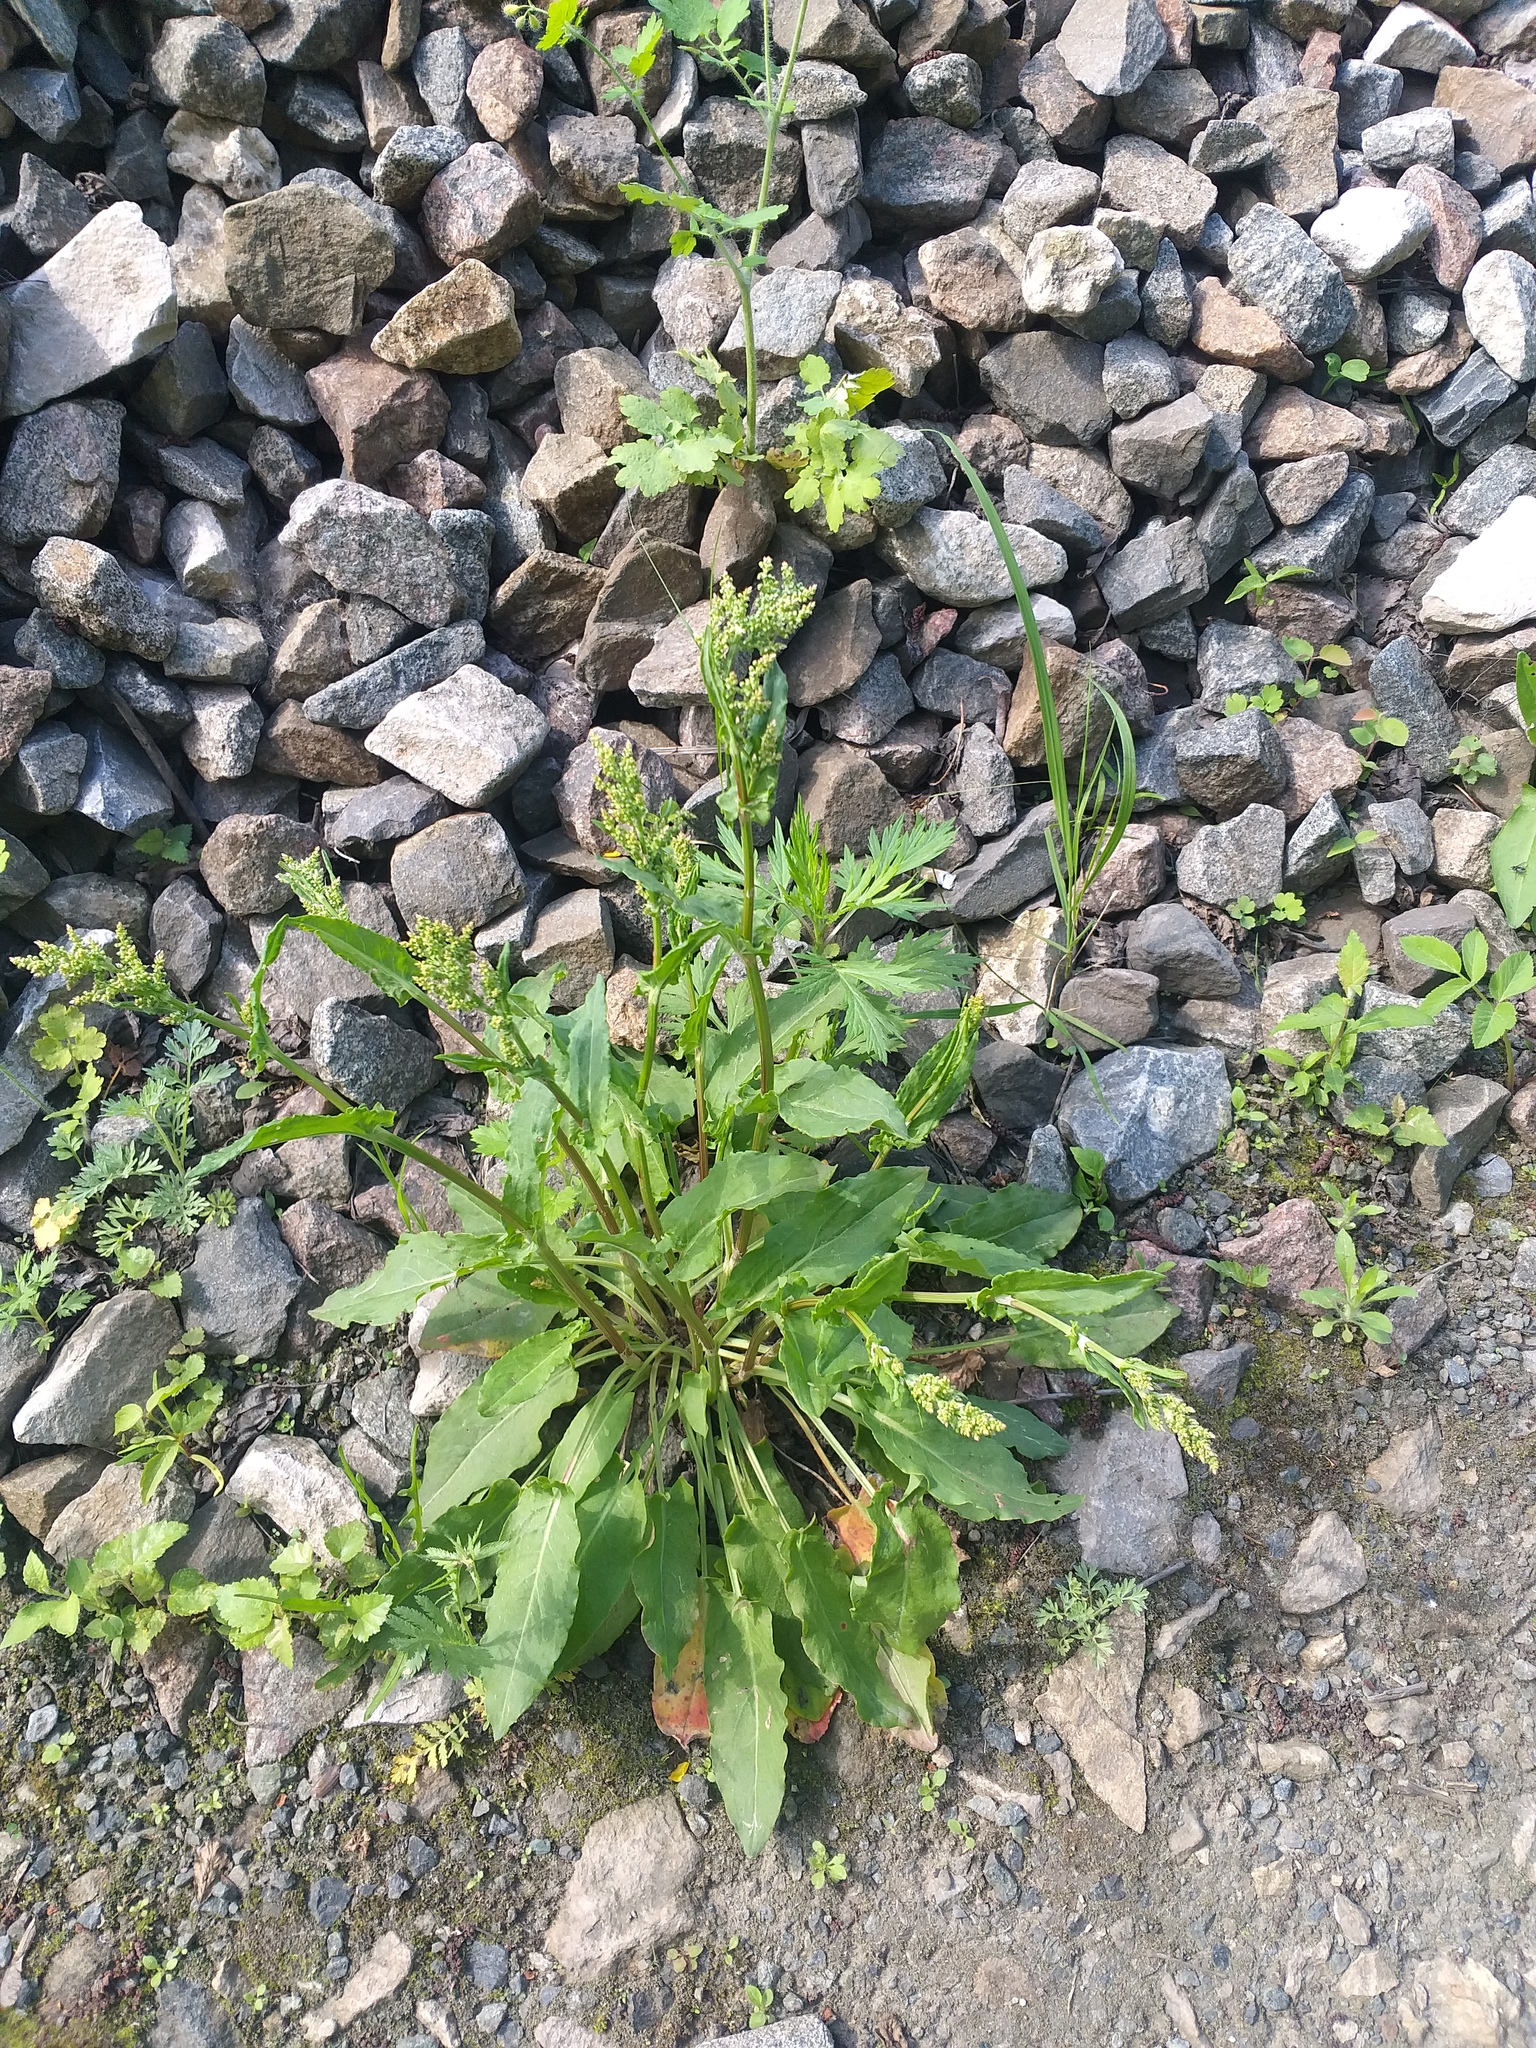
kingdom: Plantae
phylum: Tracheophyta
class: Magnoliopsida
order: Caryophyllales
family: Polygonaceae
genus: Rumex
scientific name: Rumex thyrsiflorus
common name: Garden sorrel
